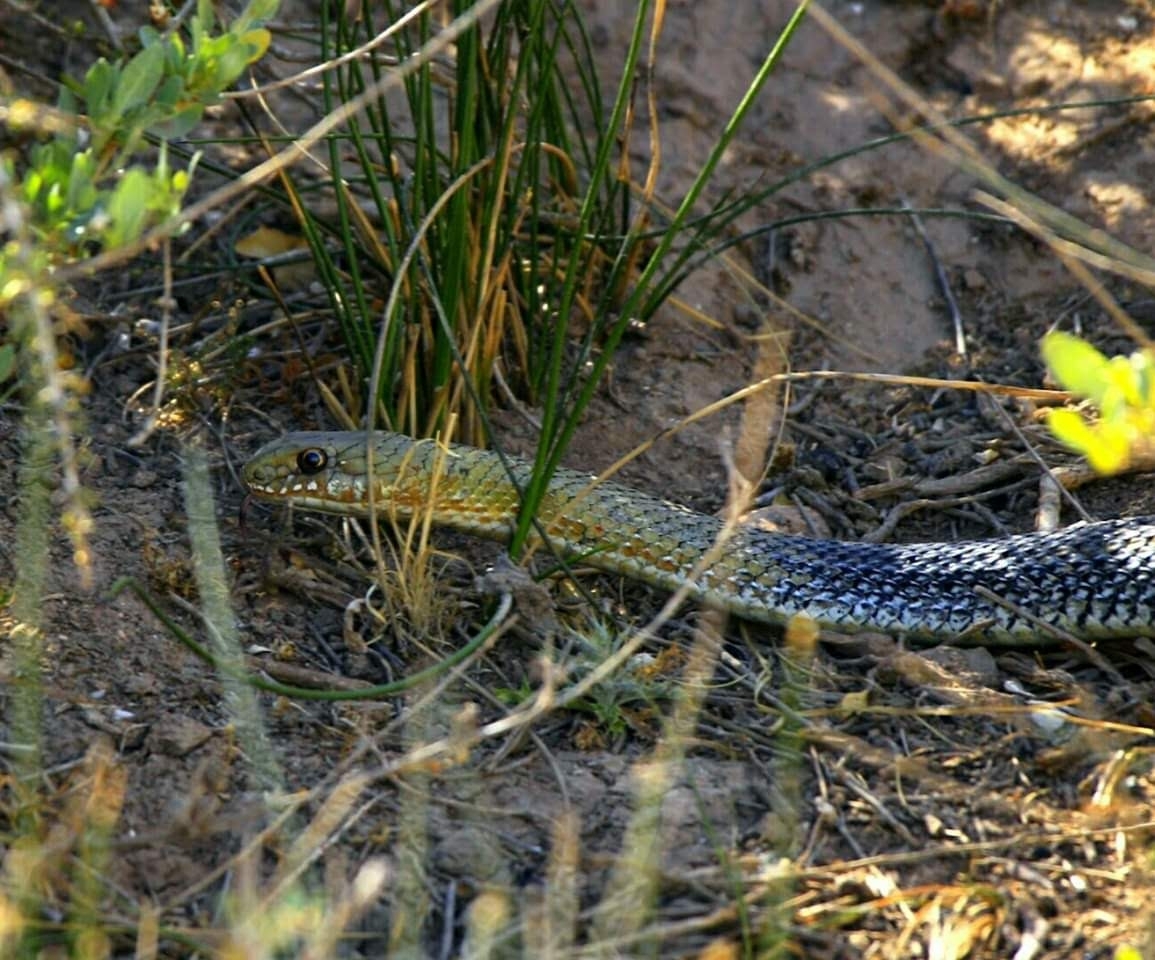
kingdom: Animalia
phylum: Chordata
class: Squamata
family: Psammophiidae
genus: Malpolon
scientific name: Malpolon monspessulanus
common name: Montpellier snake
